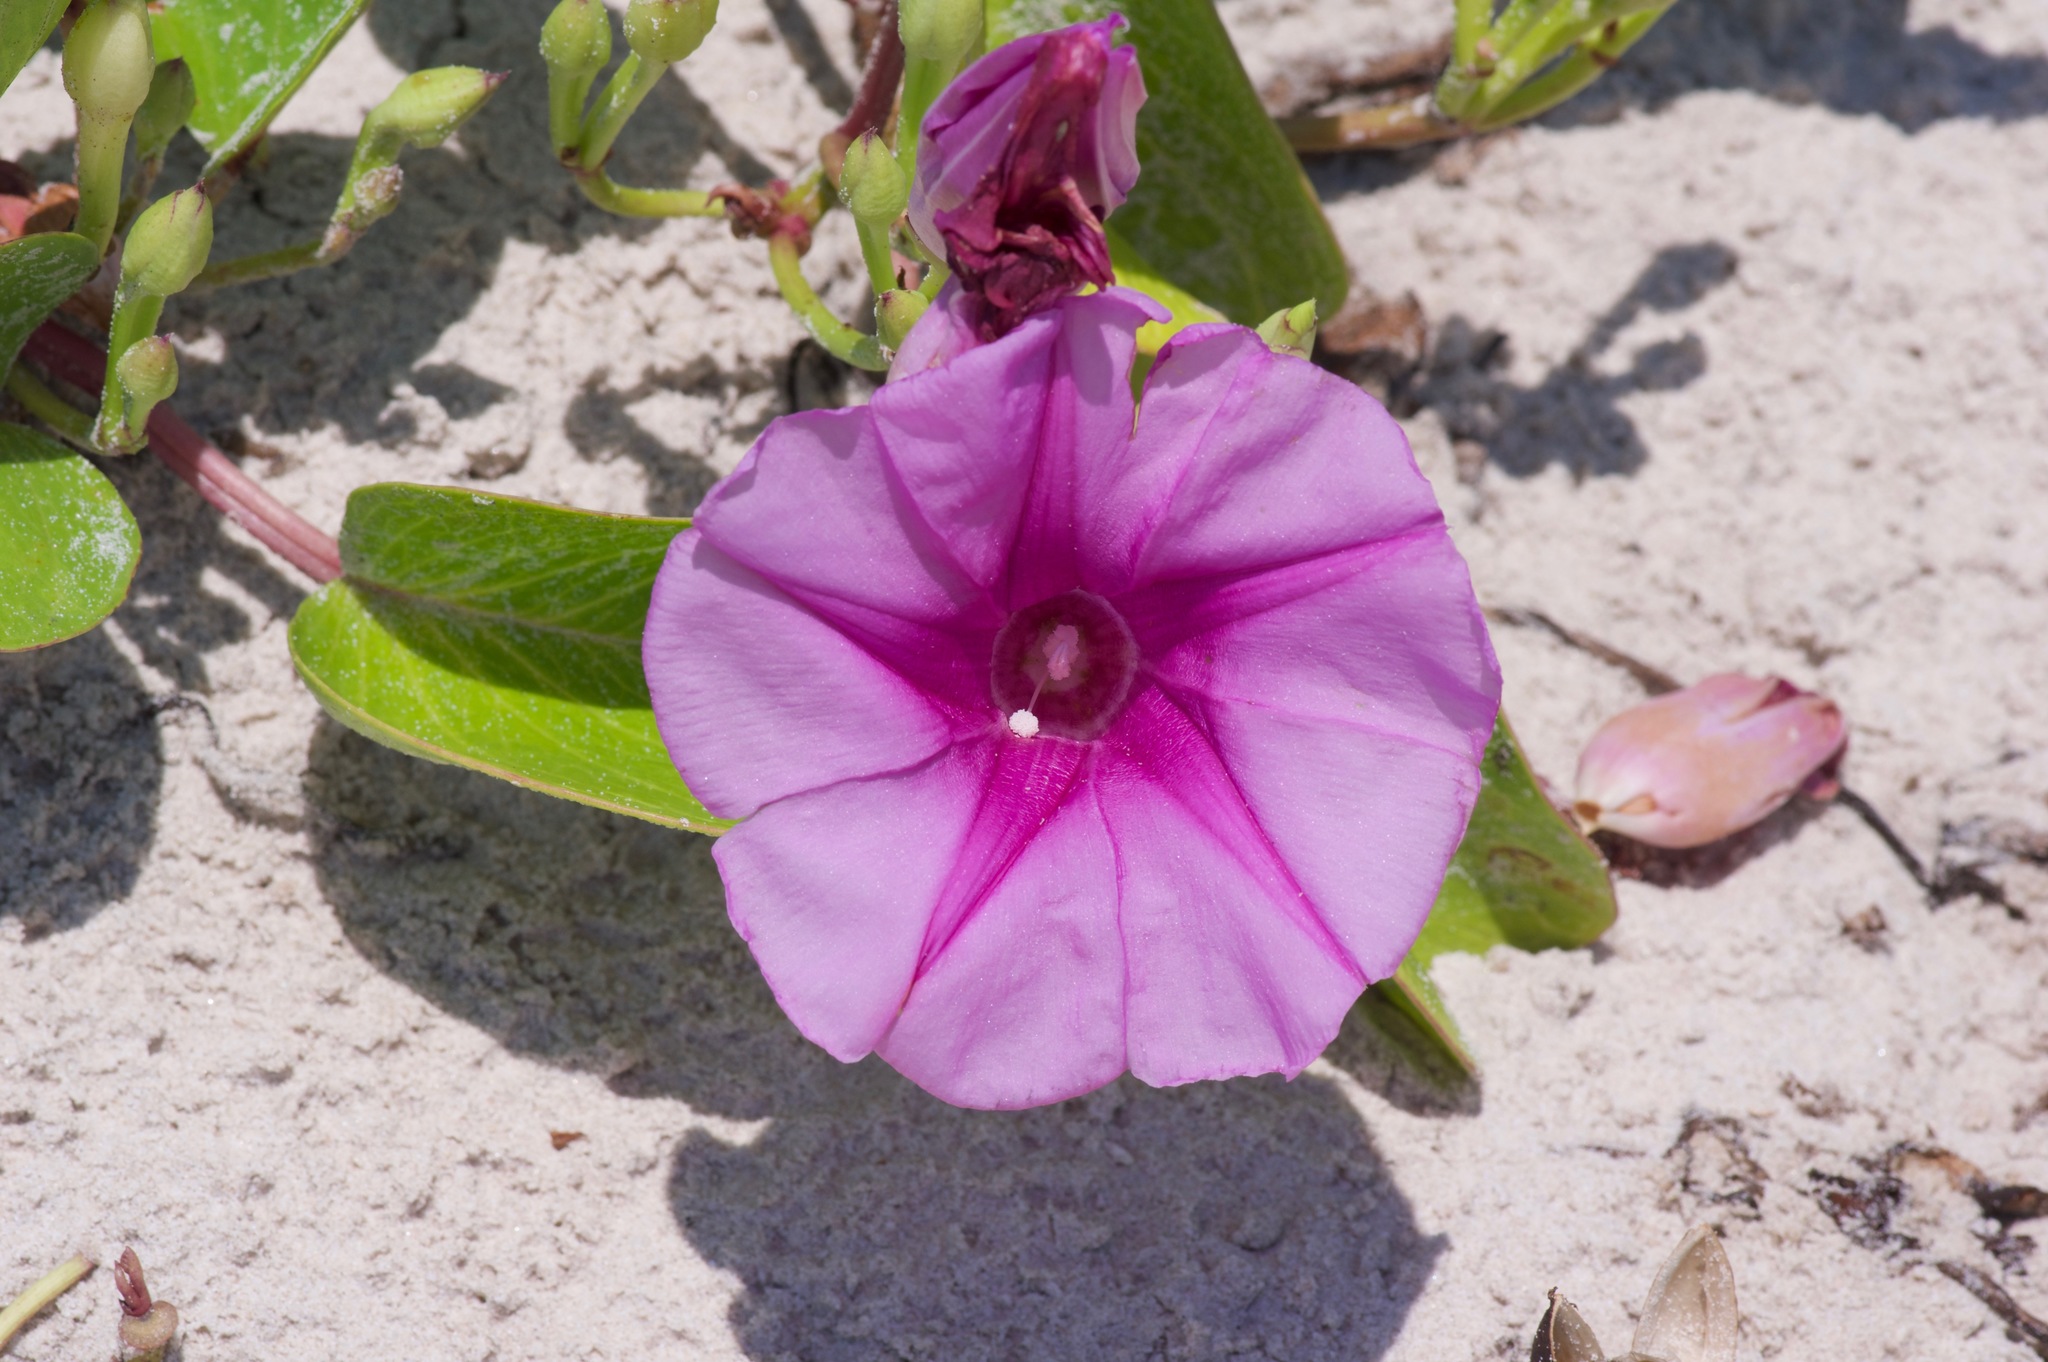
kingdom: Plantae
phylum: Tracheophyta
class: Magnoliopsida
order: Solanales
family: Convolvulaceae
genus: Ipomoea
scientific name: Ipomoea pes-caprae
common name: Beach morning glory
